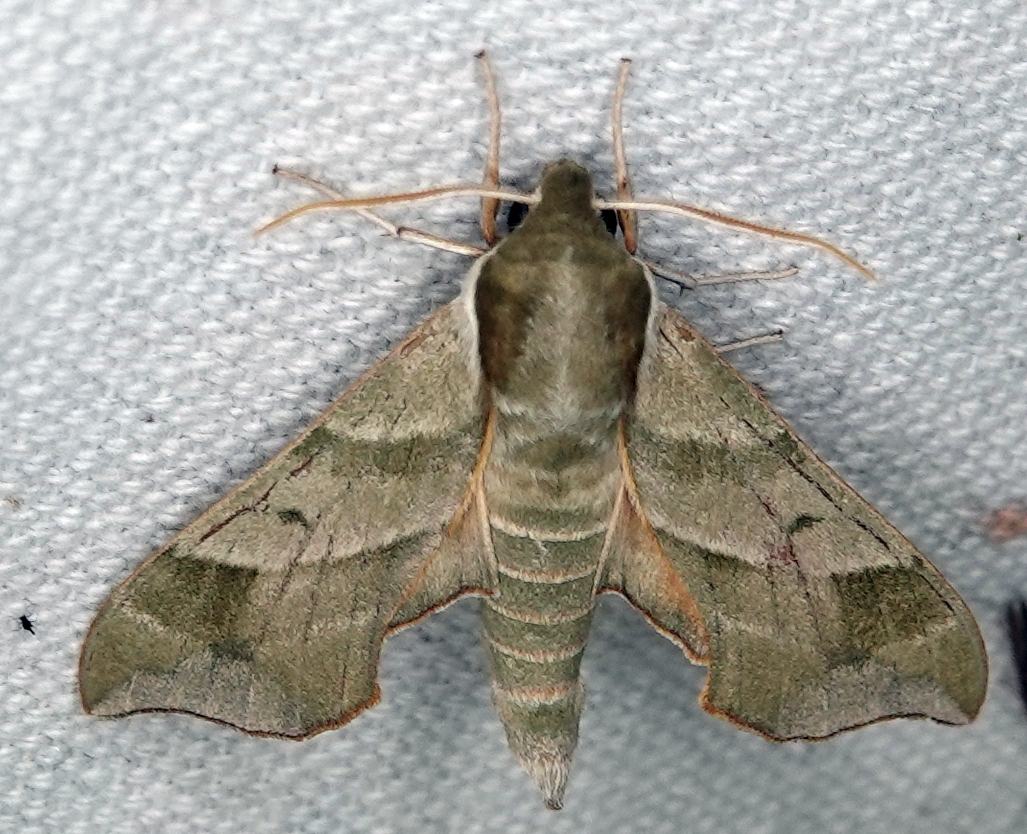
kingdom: Animalia
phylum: Arthropoda
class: Insecta
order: Lepidoptera
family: Sphingidae
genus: Darapsa
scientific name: Darapsa myron
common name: Hog sphinx
